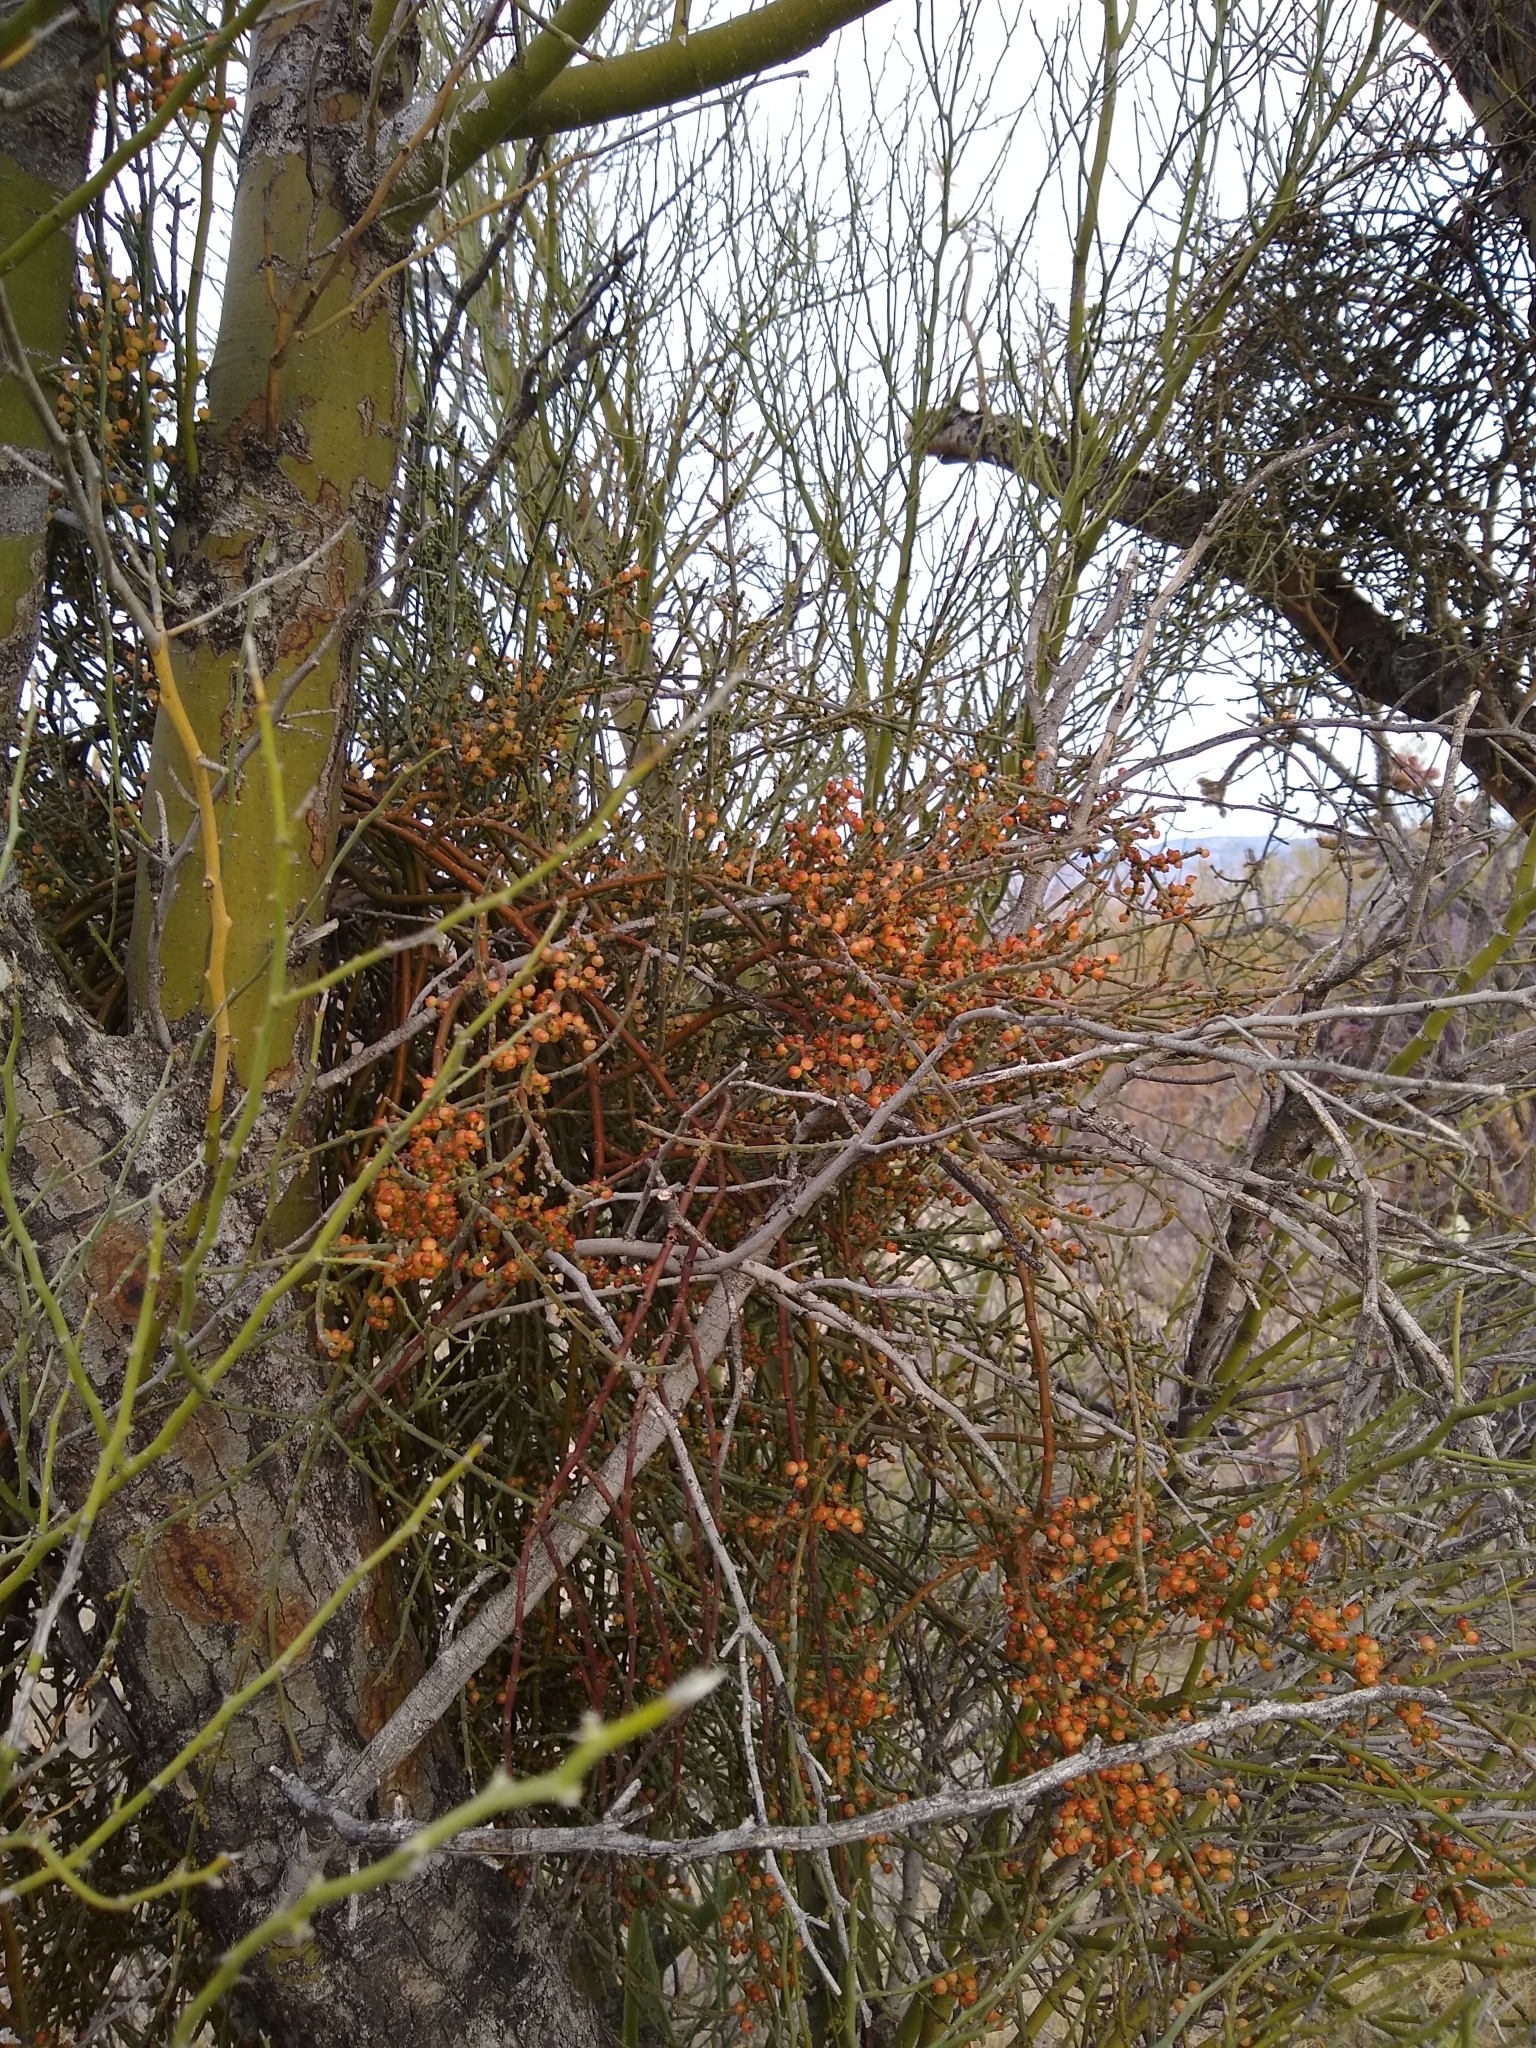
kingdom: Plantae
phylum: Tracheophyta
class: Magnoliopsida
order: Santalales
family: Viscaceae
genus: Phoradendron
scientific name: Phoradendron californicum
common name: Acacia mistletoe
